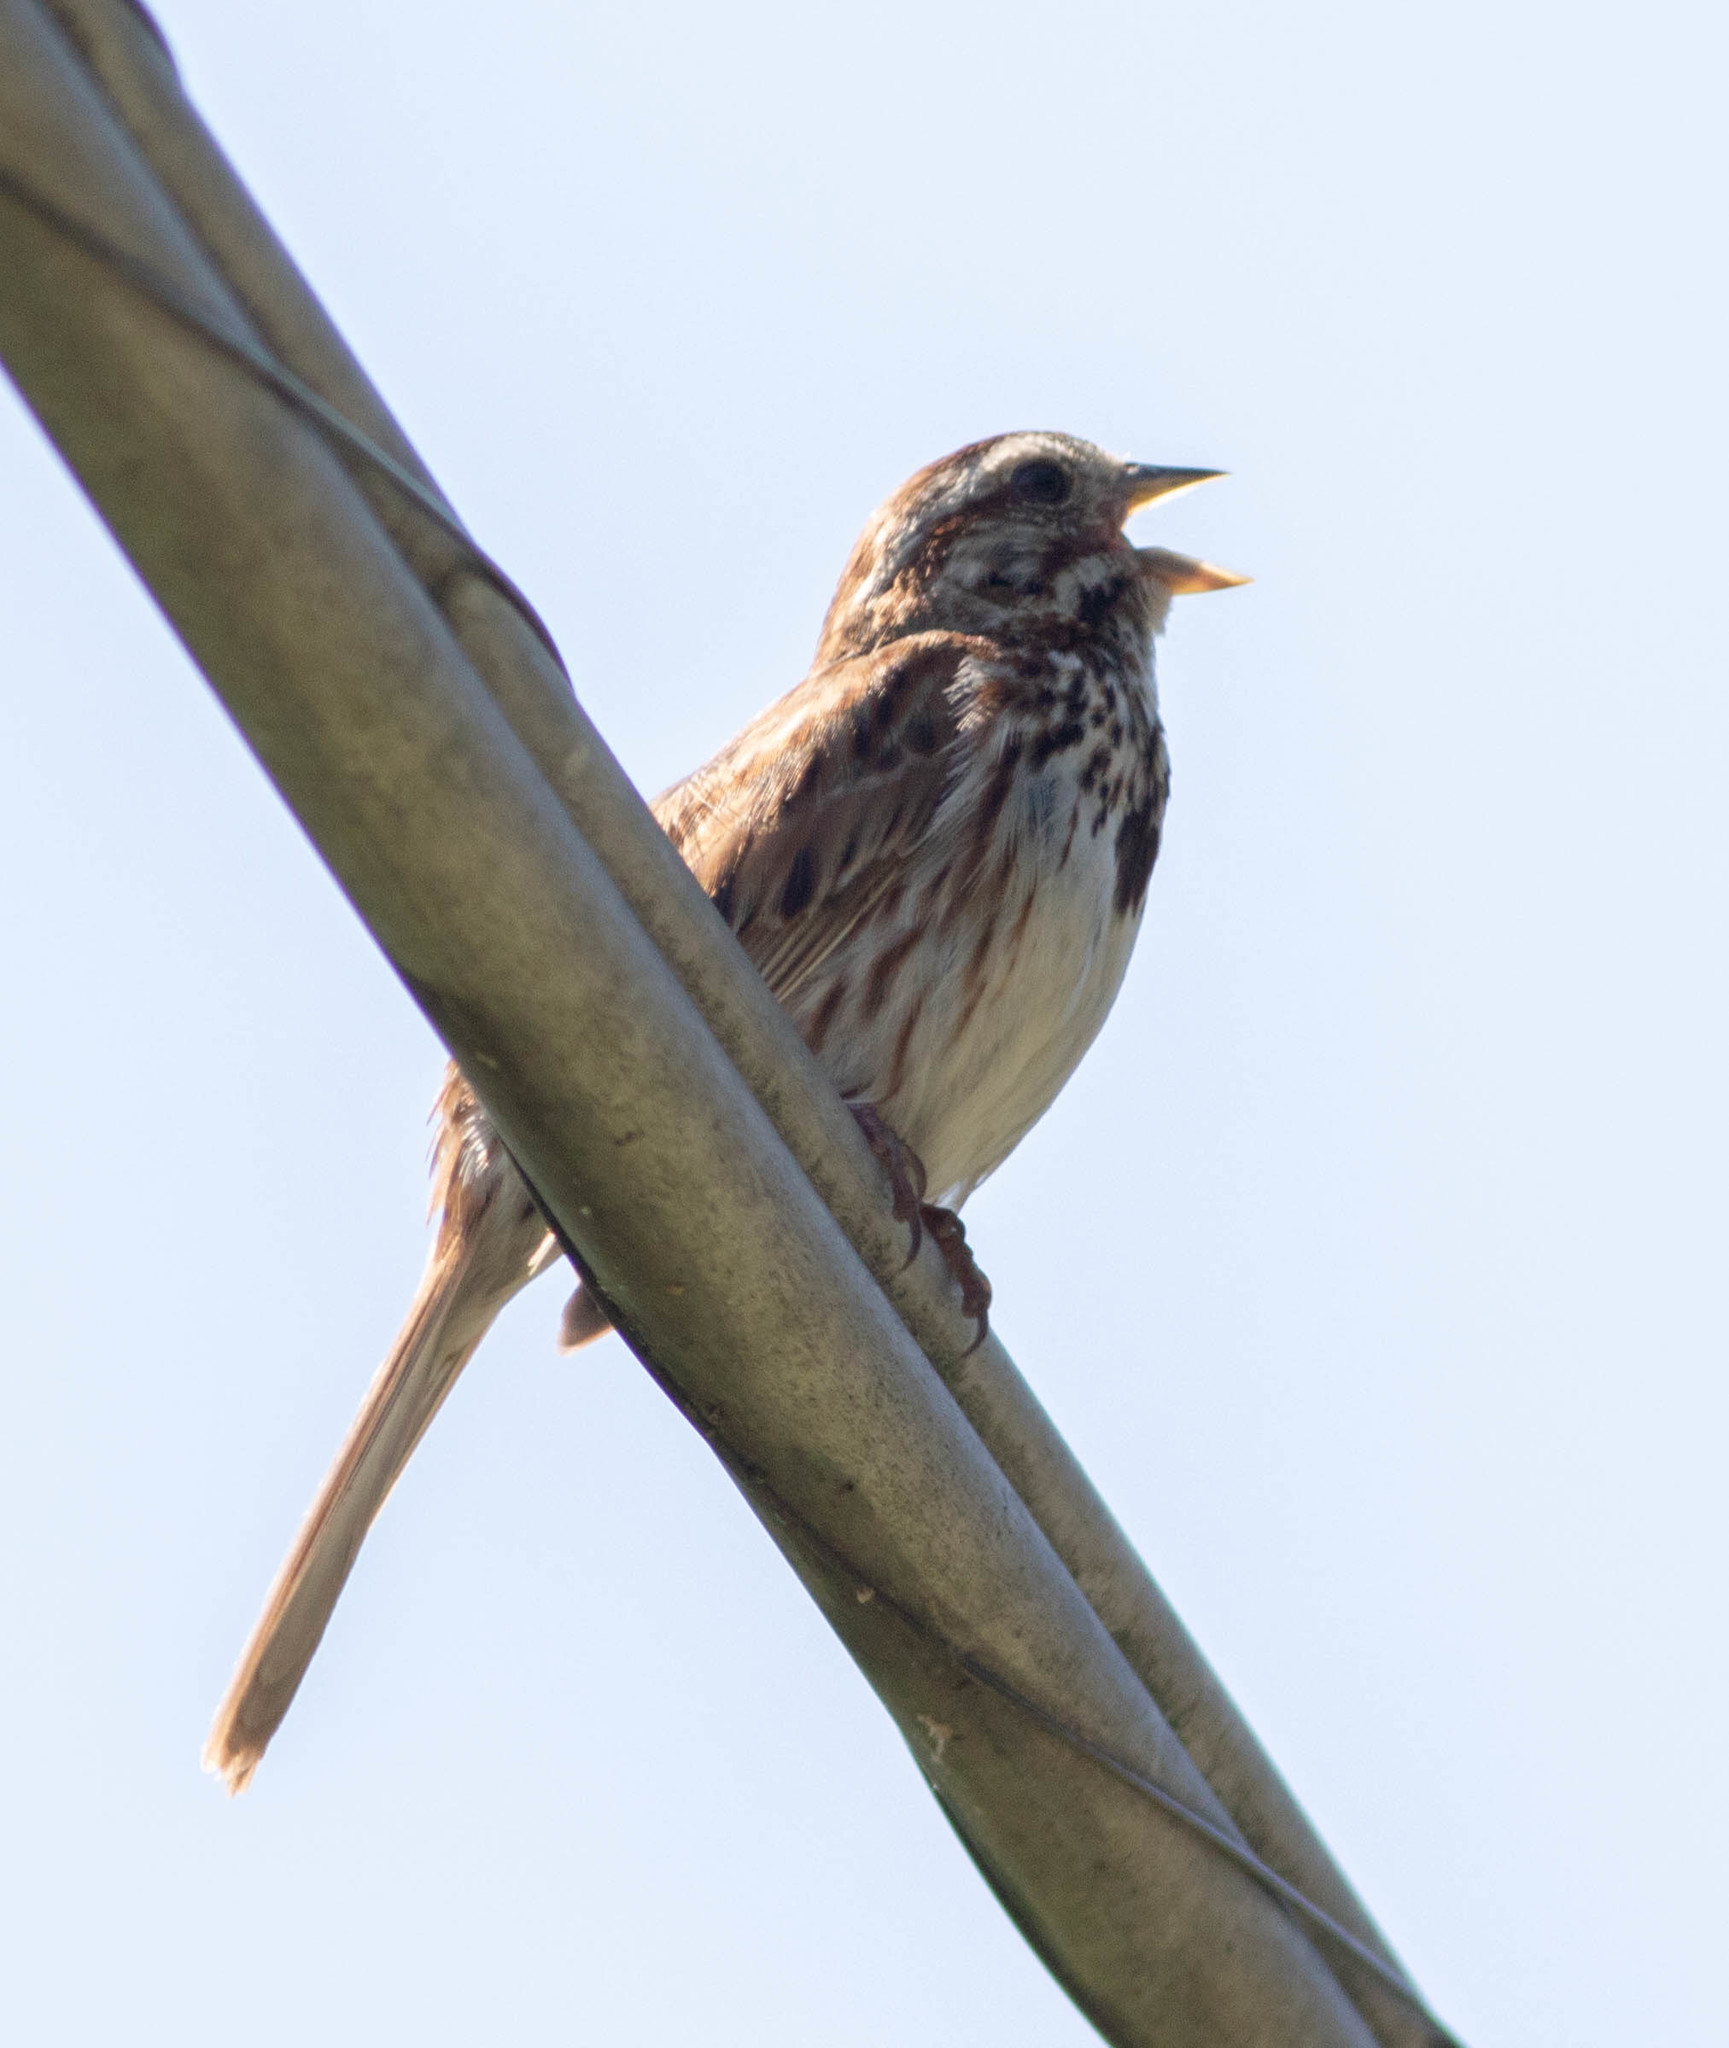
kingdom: Animalia
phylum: Chordata
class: Aves
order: Passeriformes
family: Passerellidae
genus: Melospiza
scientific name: Melospiza melodia
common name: Song sparrow
